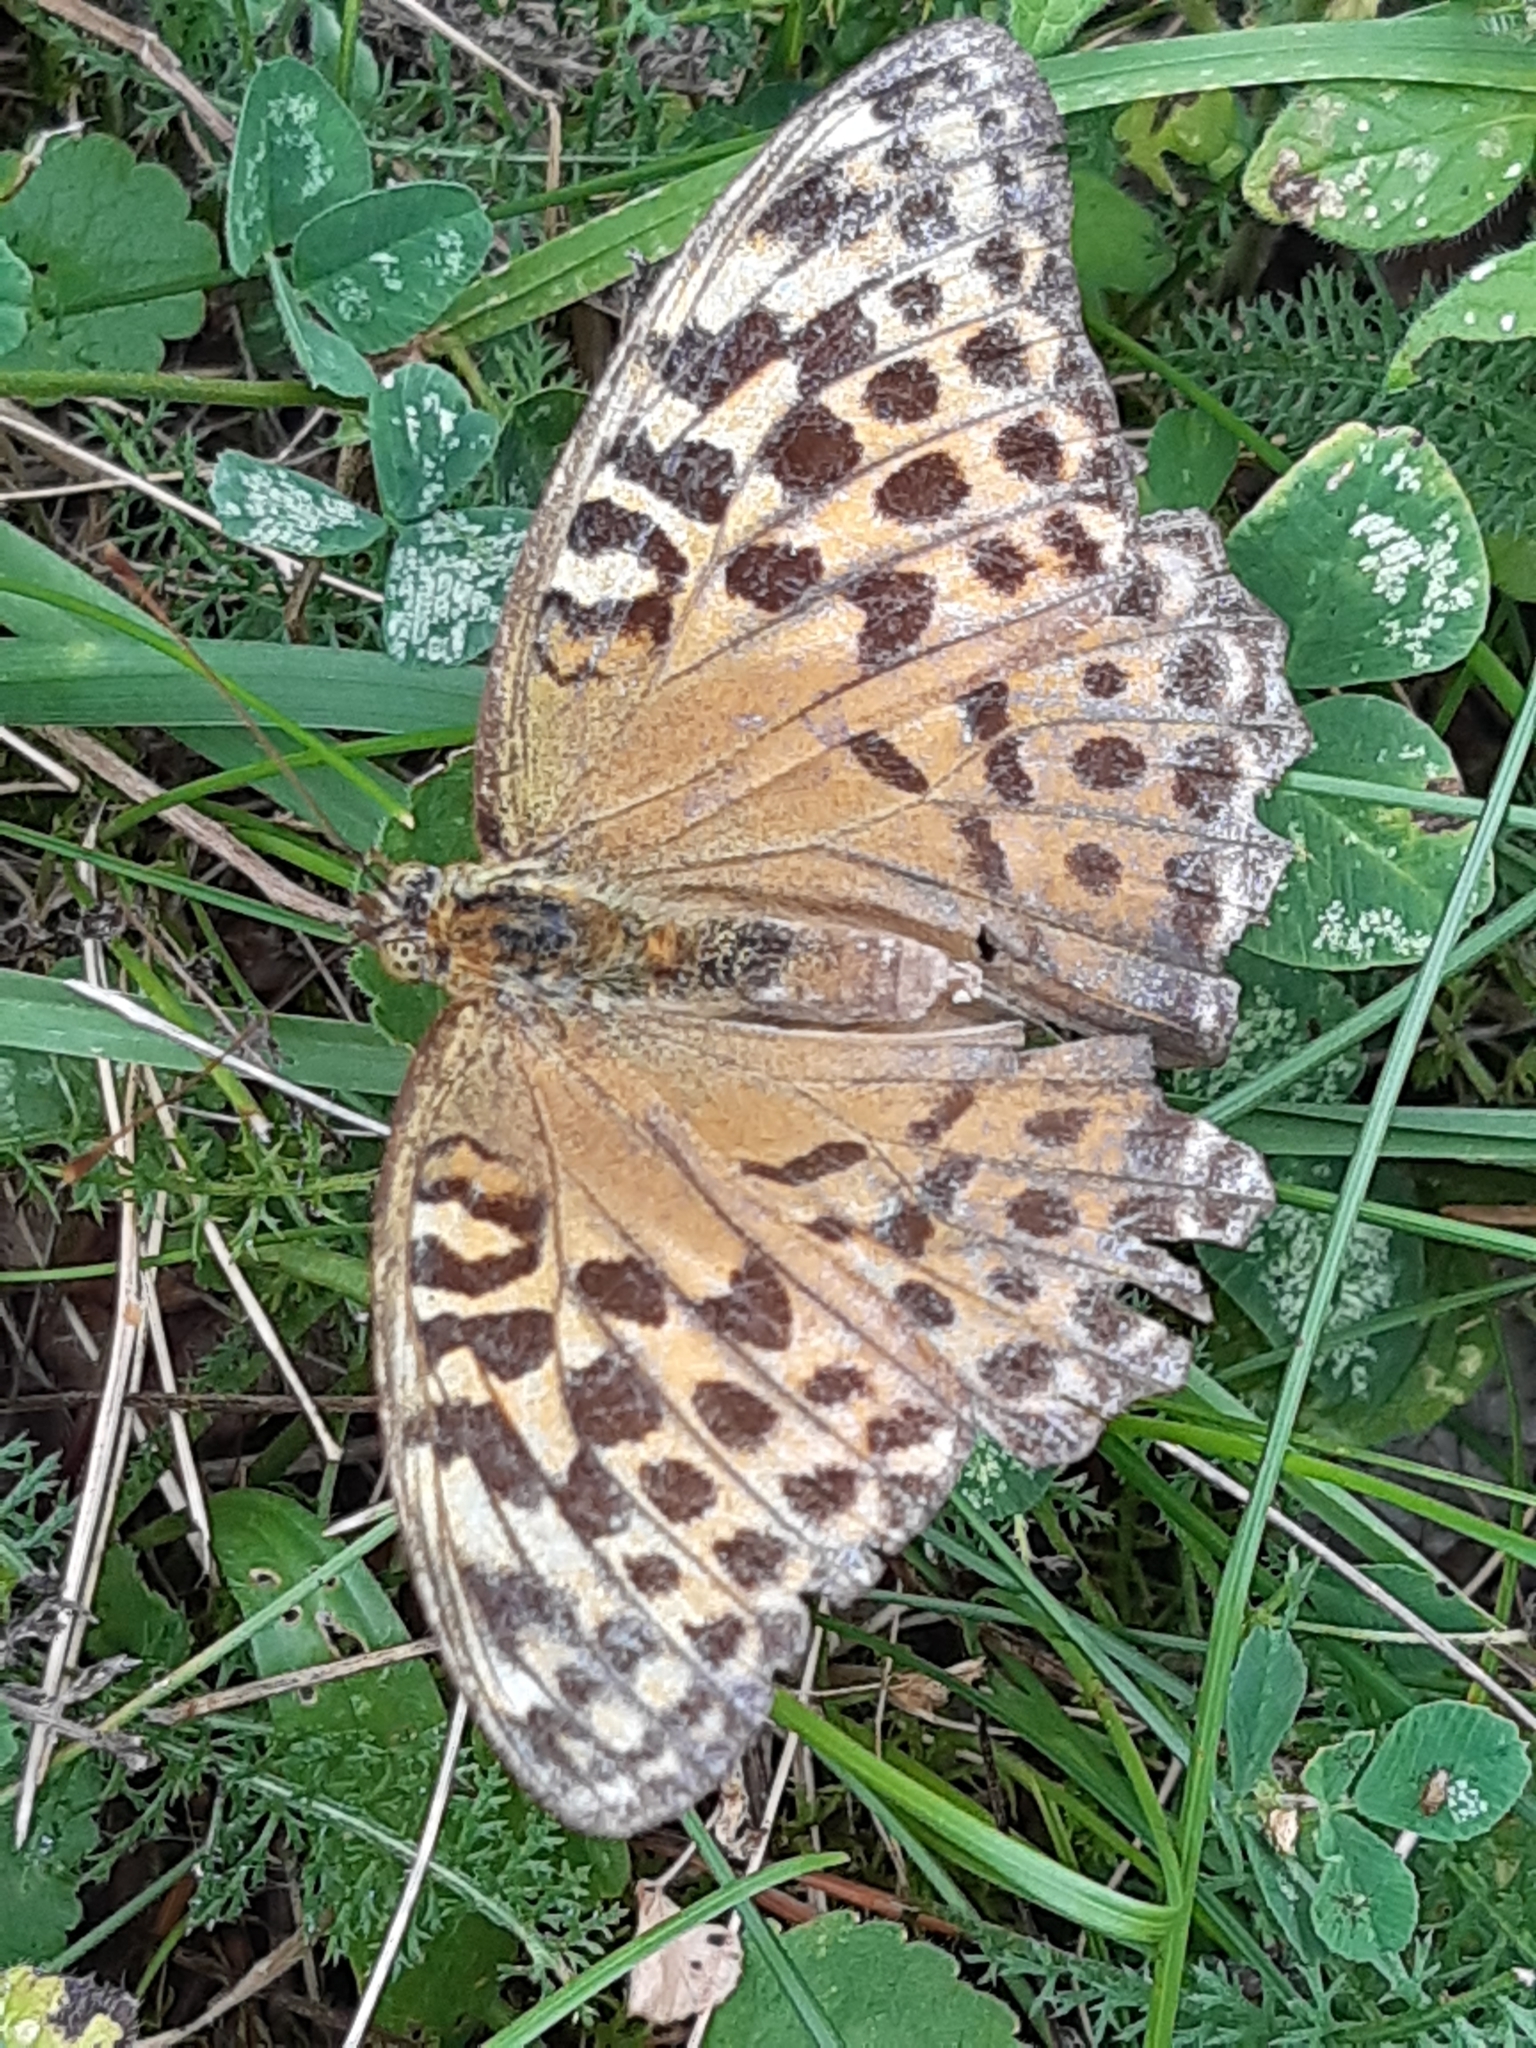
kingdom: Animalia
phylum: Arthropoda
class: Insecta
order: Lepidoptera
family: Nymphalidae
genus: Argynnis
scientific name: Argynnis paphia
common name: Silver-washed fritillary
